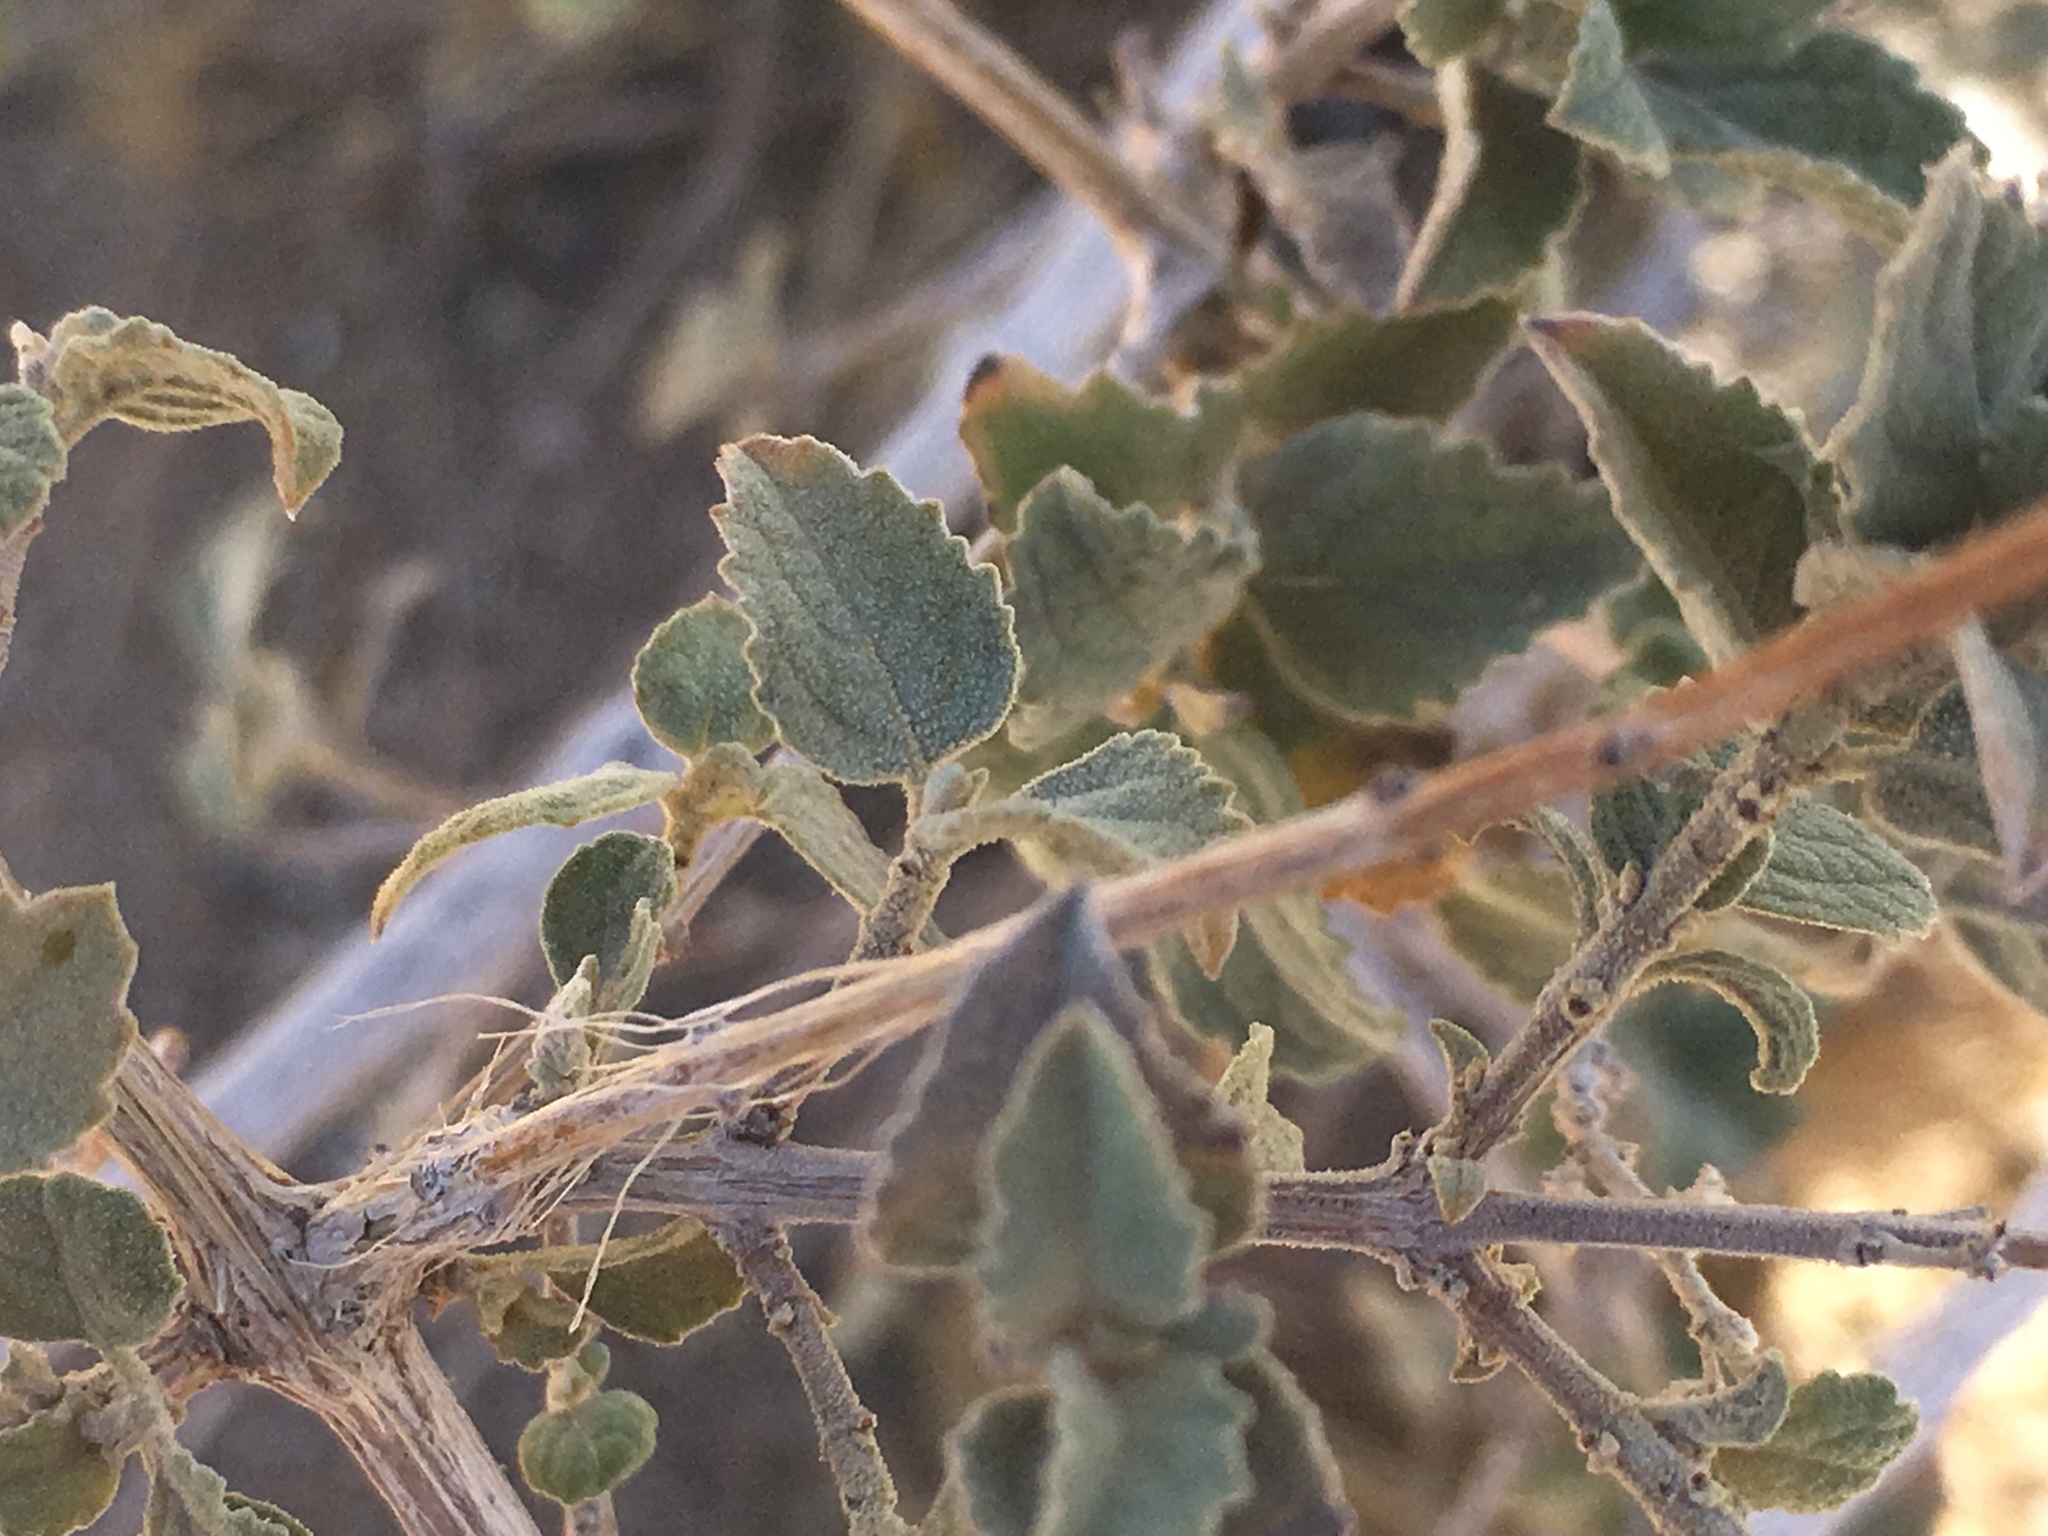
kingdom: Plantae
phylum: Tracheophyta
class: Magnoliopsida
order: Lamiales
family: Lamiaceae
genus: Condea
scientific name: Condea emoryi
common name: Chia
